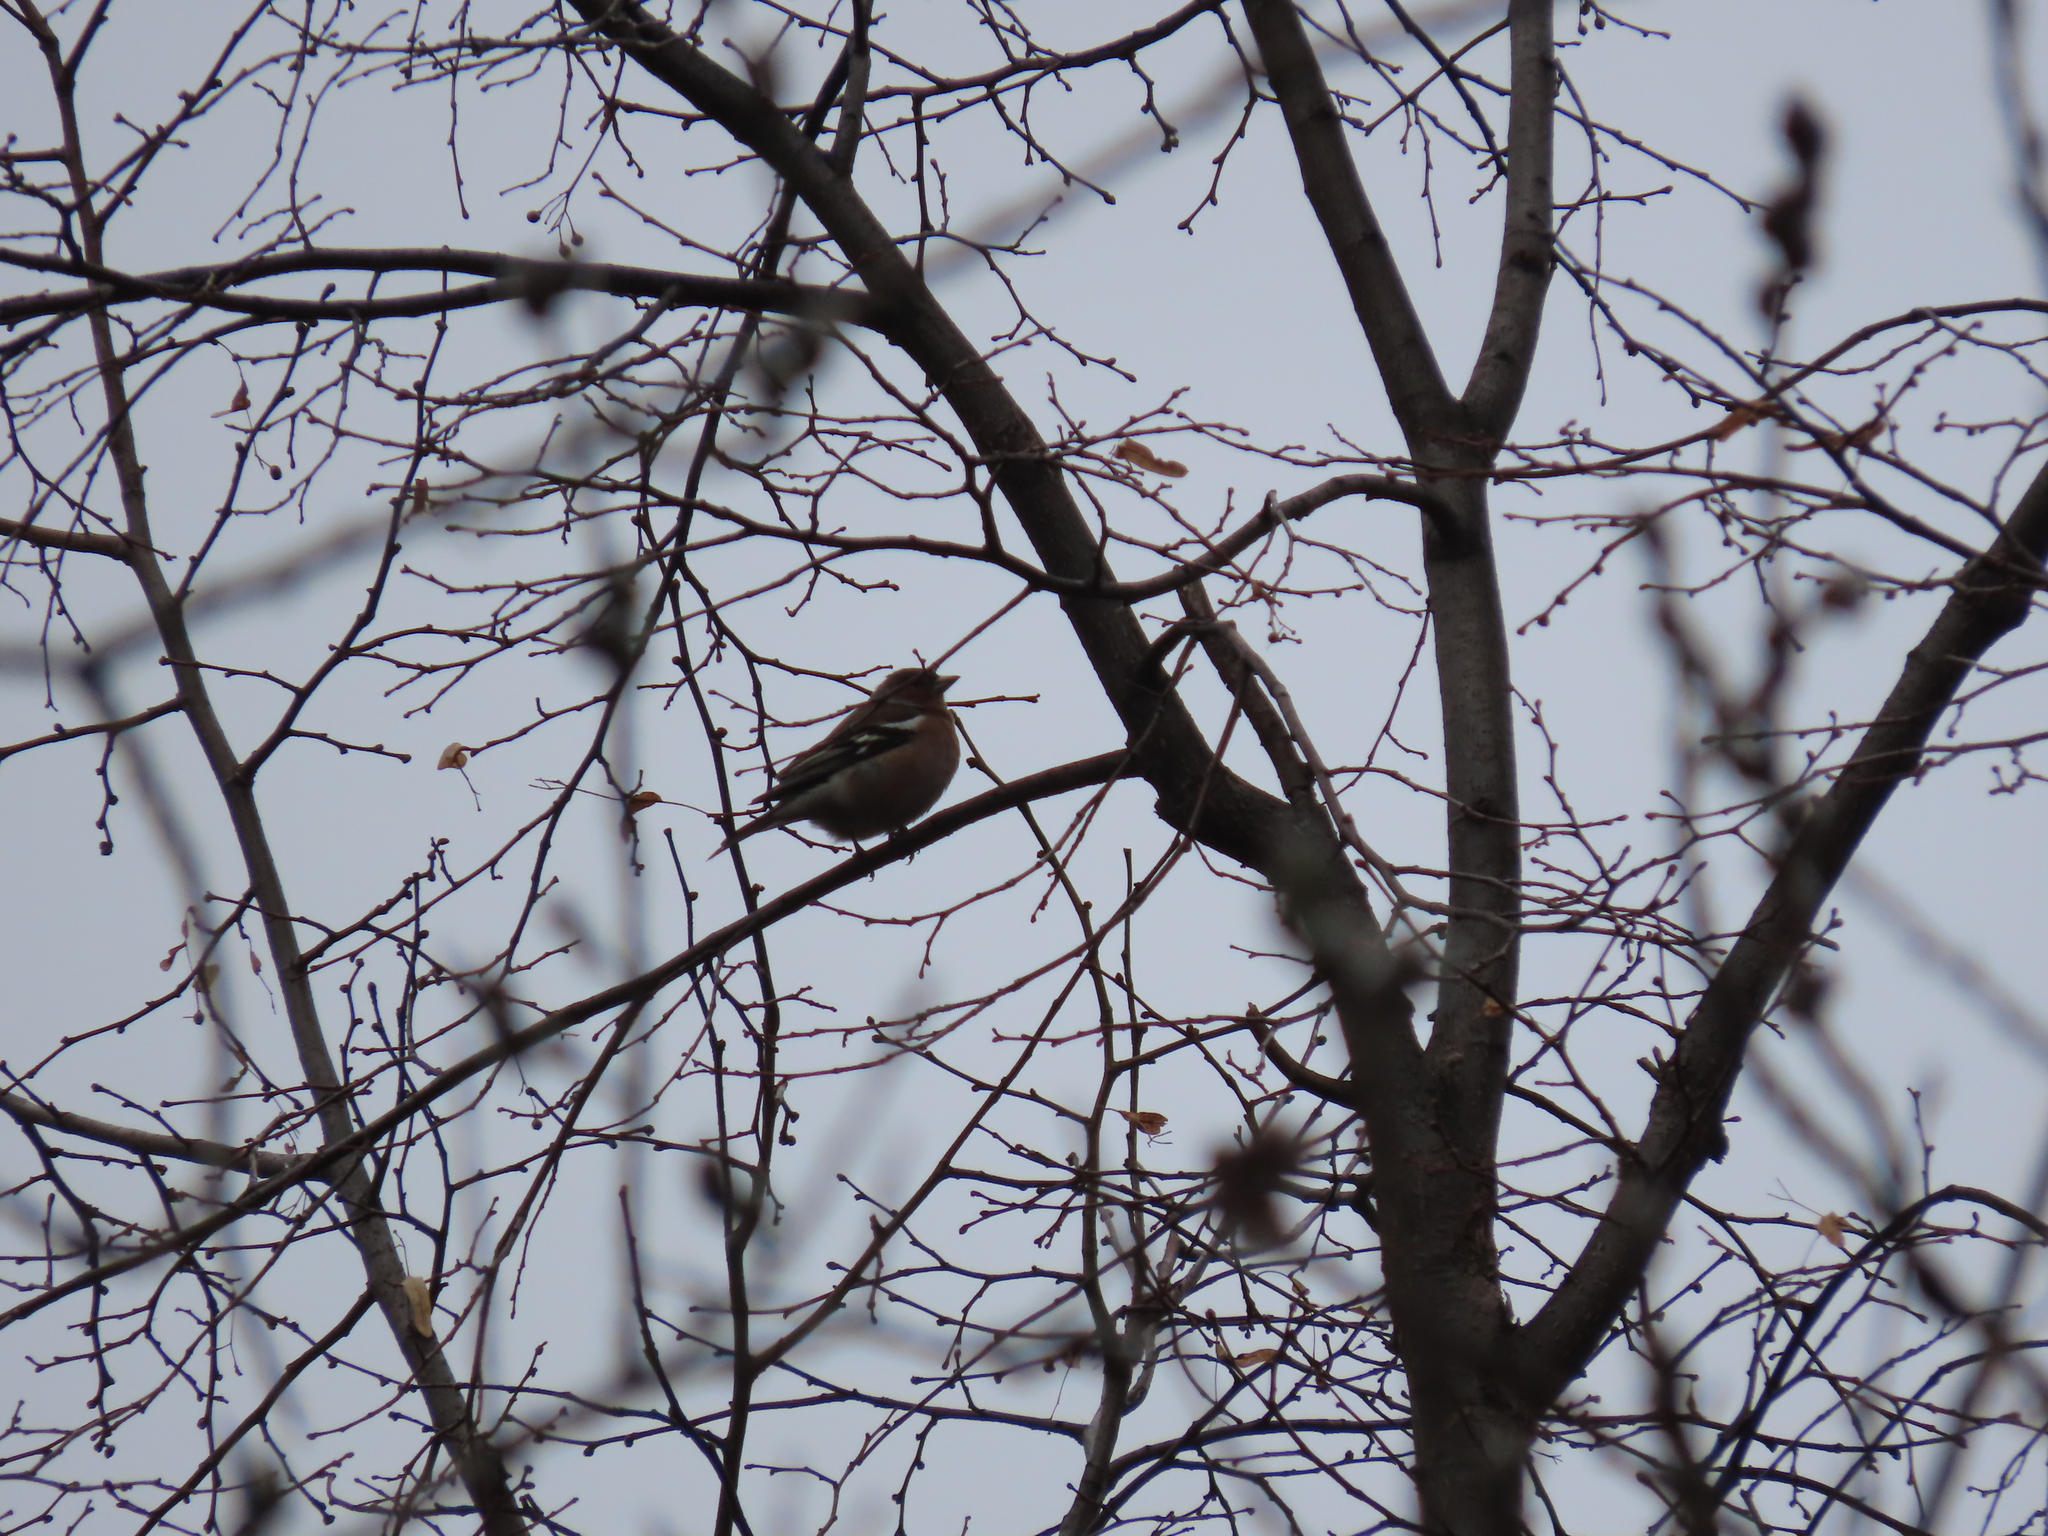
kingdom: Animalia
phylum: Chordata
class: Aves
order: Passeriformes
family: Fringillidae
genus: Fringilla
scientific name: Fringilla coelebs
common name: Common chaffinch
